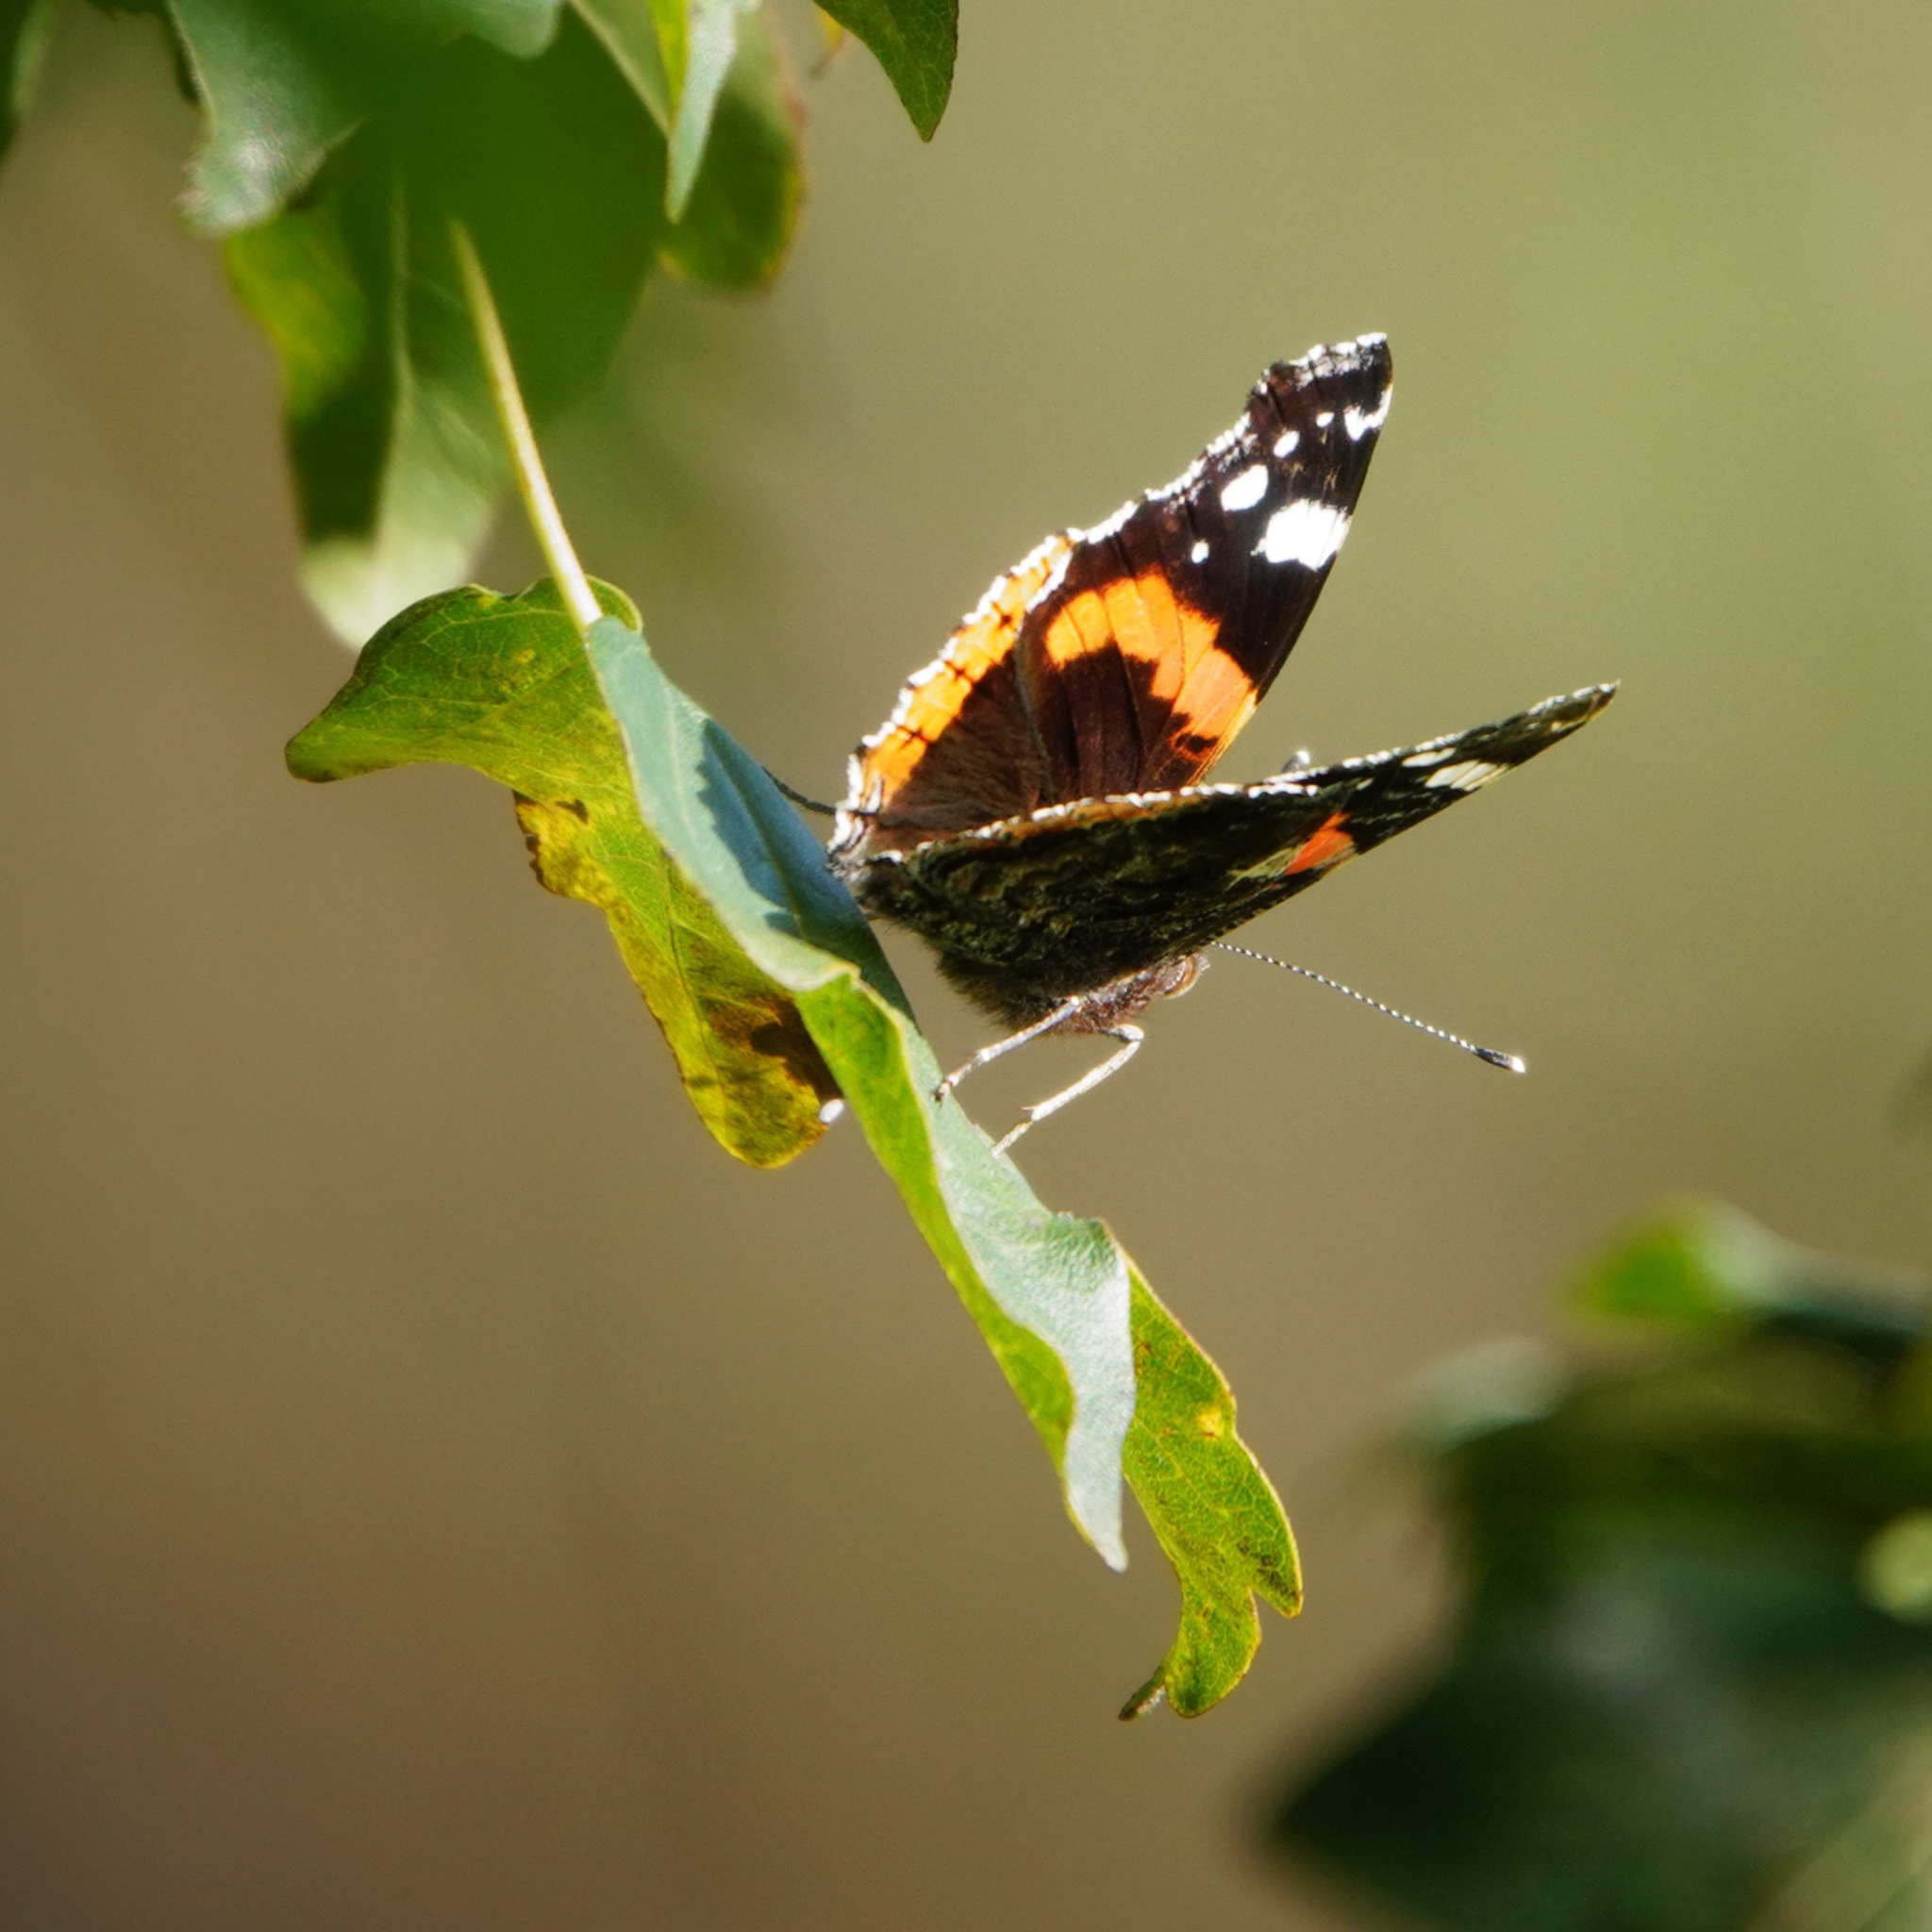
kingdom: Animalia
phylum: Arthropoda
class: Insecta
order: Lepidoptera
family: Nymphalidae
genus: Vanessa
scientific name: Vanessa atalanta
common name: Red admiral
